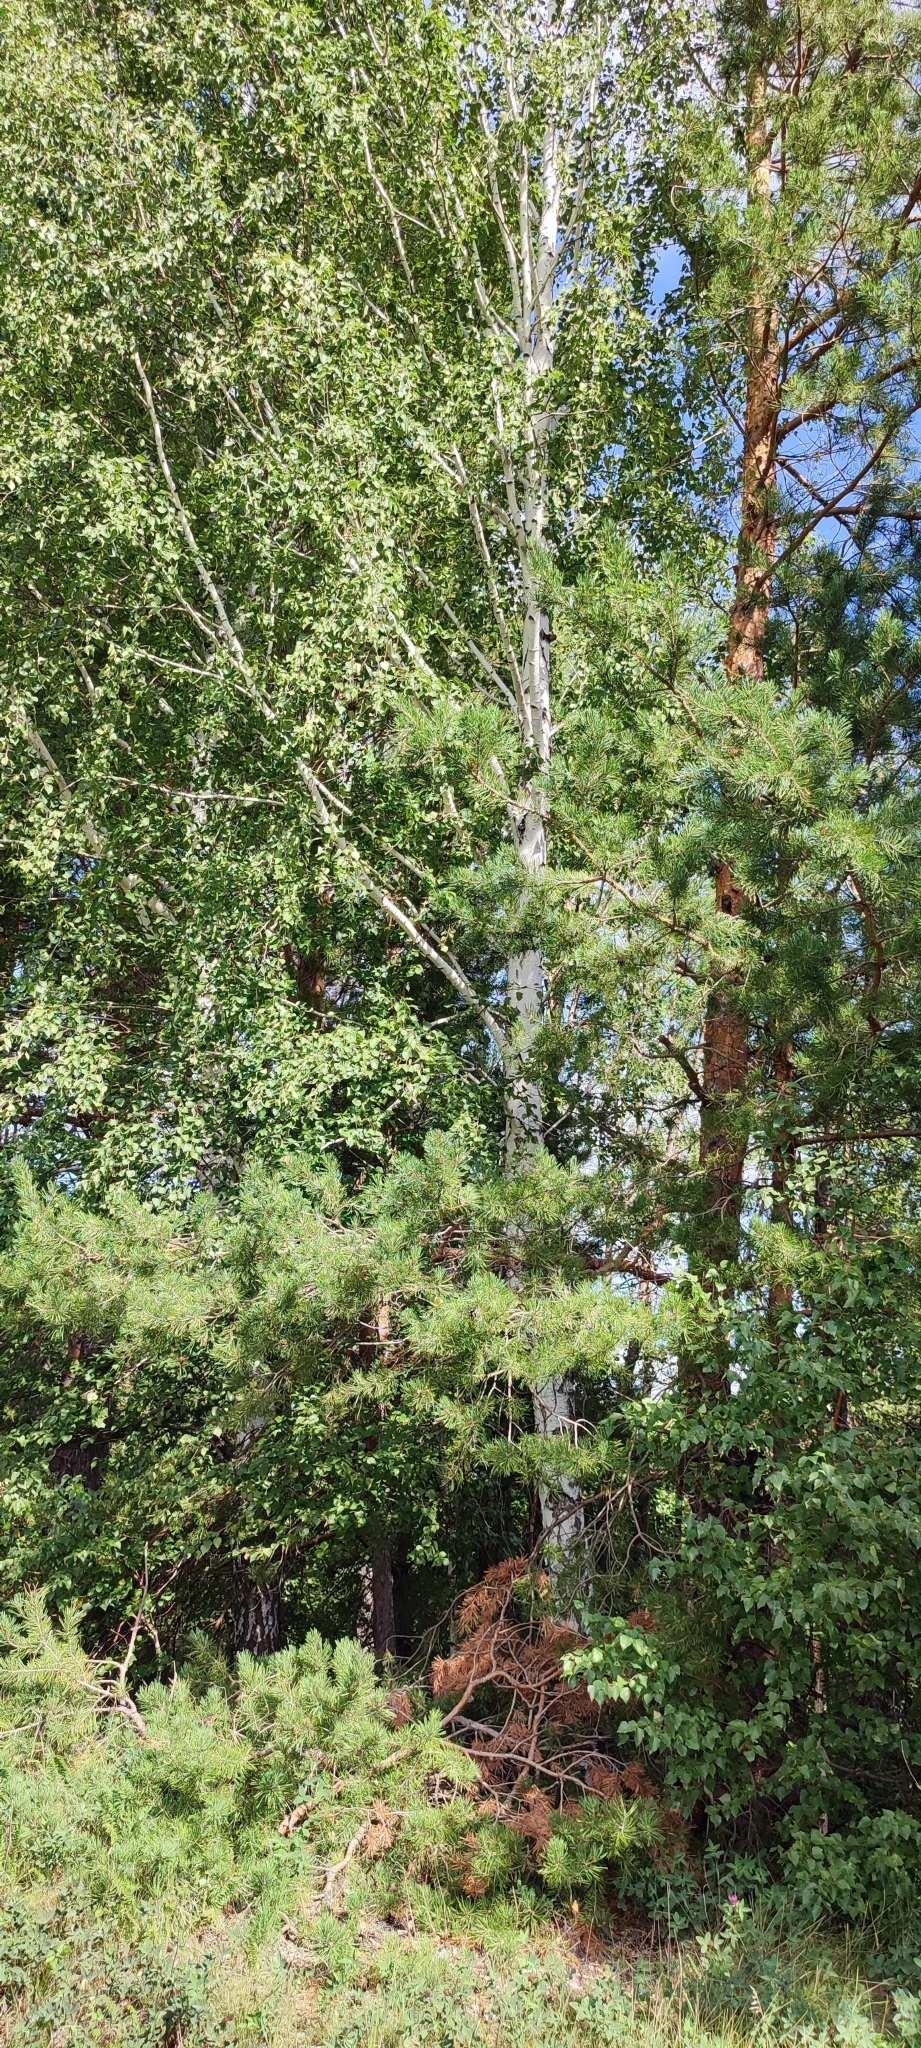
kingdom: Plantae
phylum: Tracheophyta
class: Magnoliopsida
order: Fagales
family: Betulaceae
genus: Betula
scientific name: Betula pendula
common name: Silver birch
